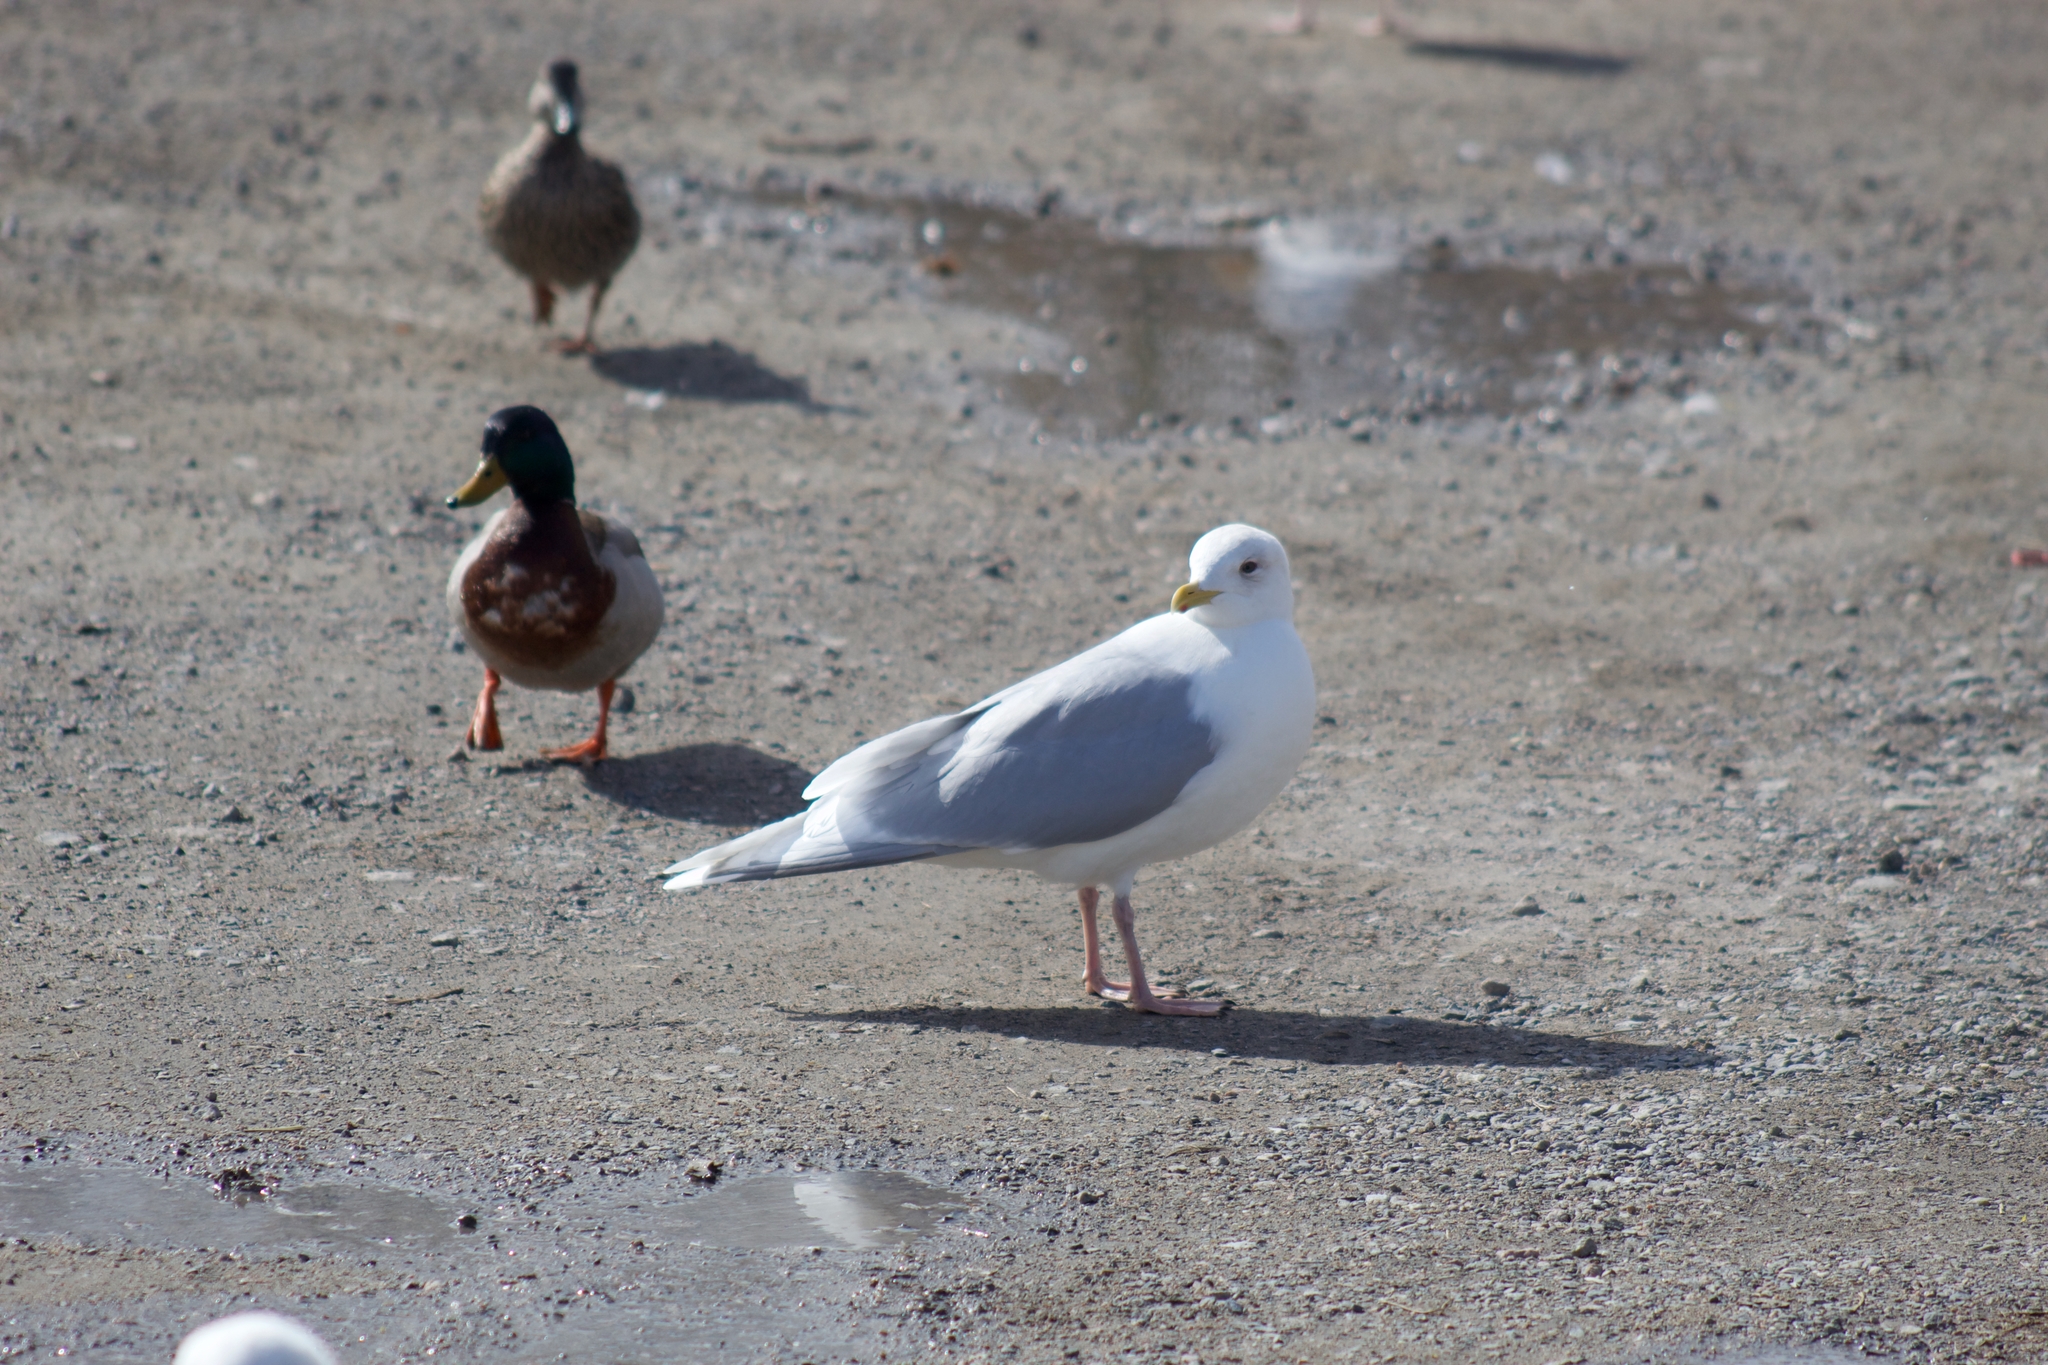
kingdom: Animalia
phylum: Chordata
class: Aves
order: Charadriiformes
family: Laridae
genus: Larus
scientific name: Larus glaucoides
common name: Iceland gull
